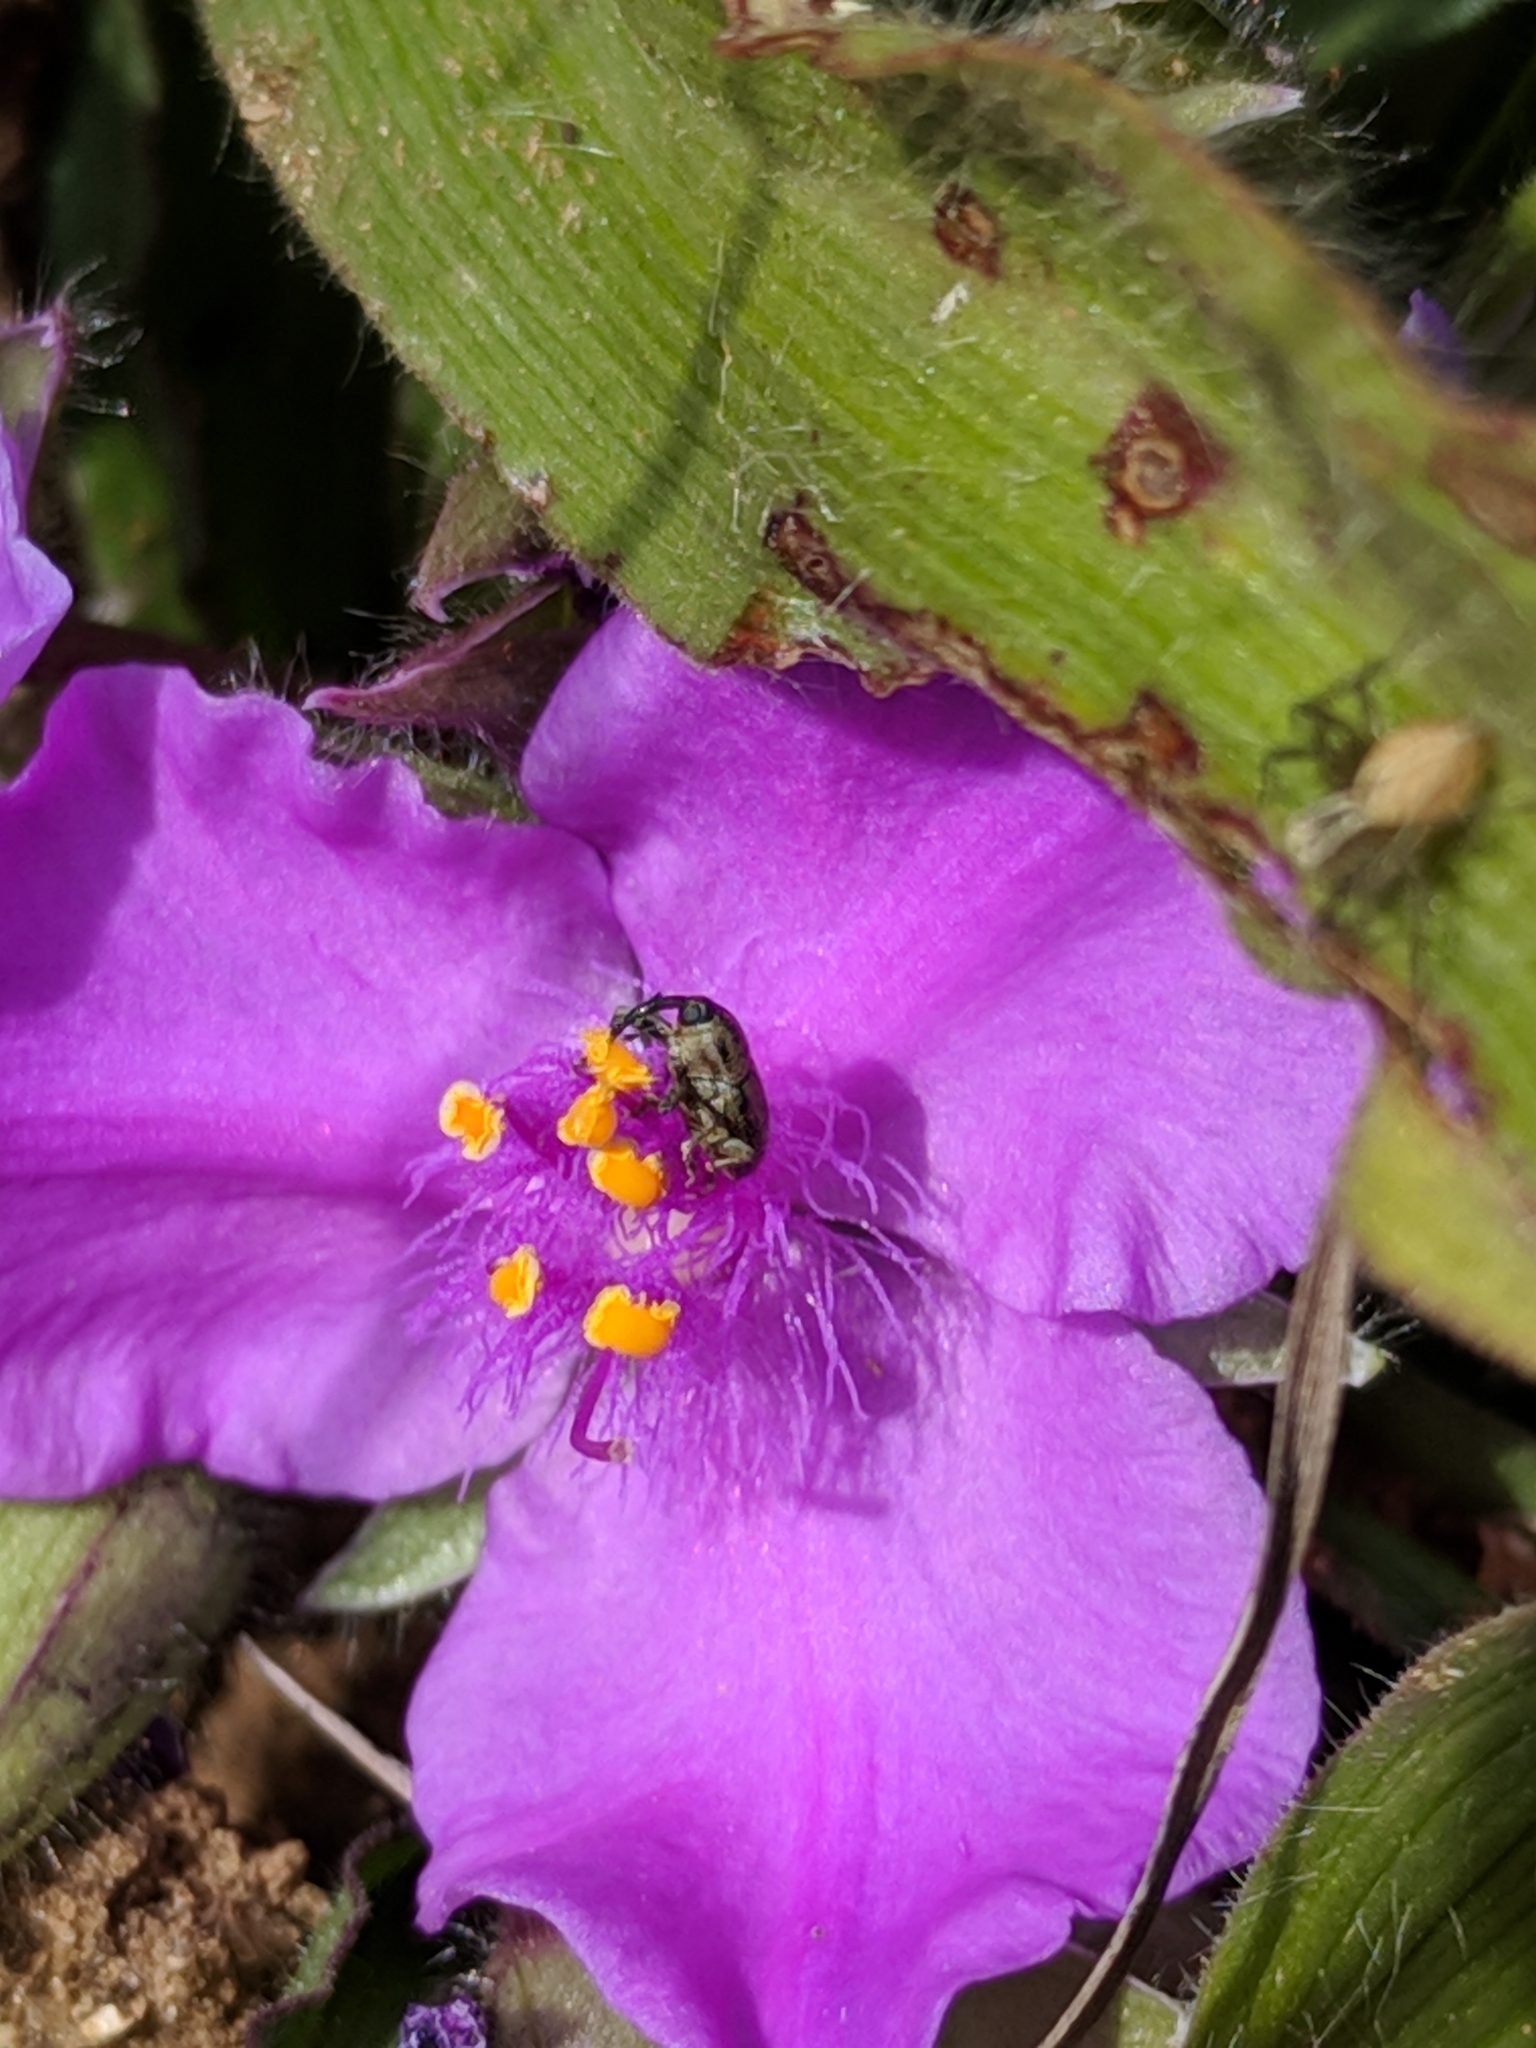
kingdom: Plantae
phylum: Tracheophyta
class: Liliopsida
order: Commelinales
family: Commelinaceae
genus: Tradescantia
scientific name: Tradescantia tharpii
